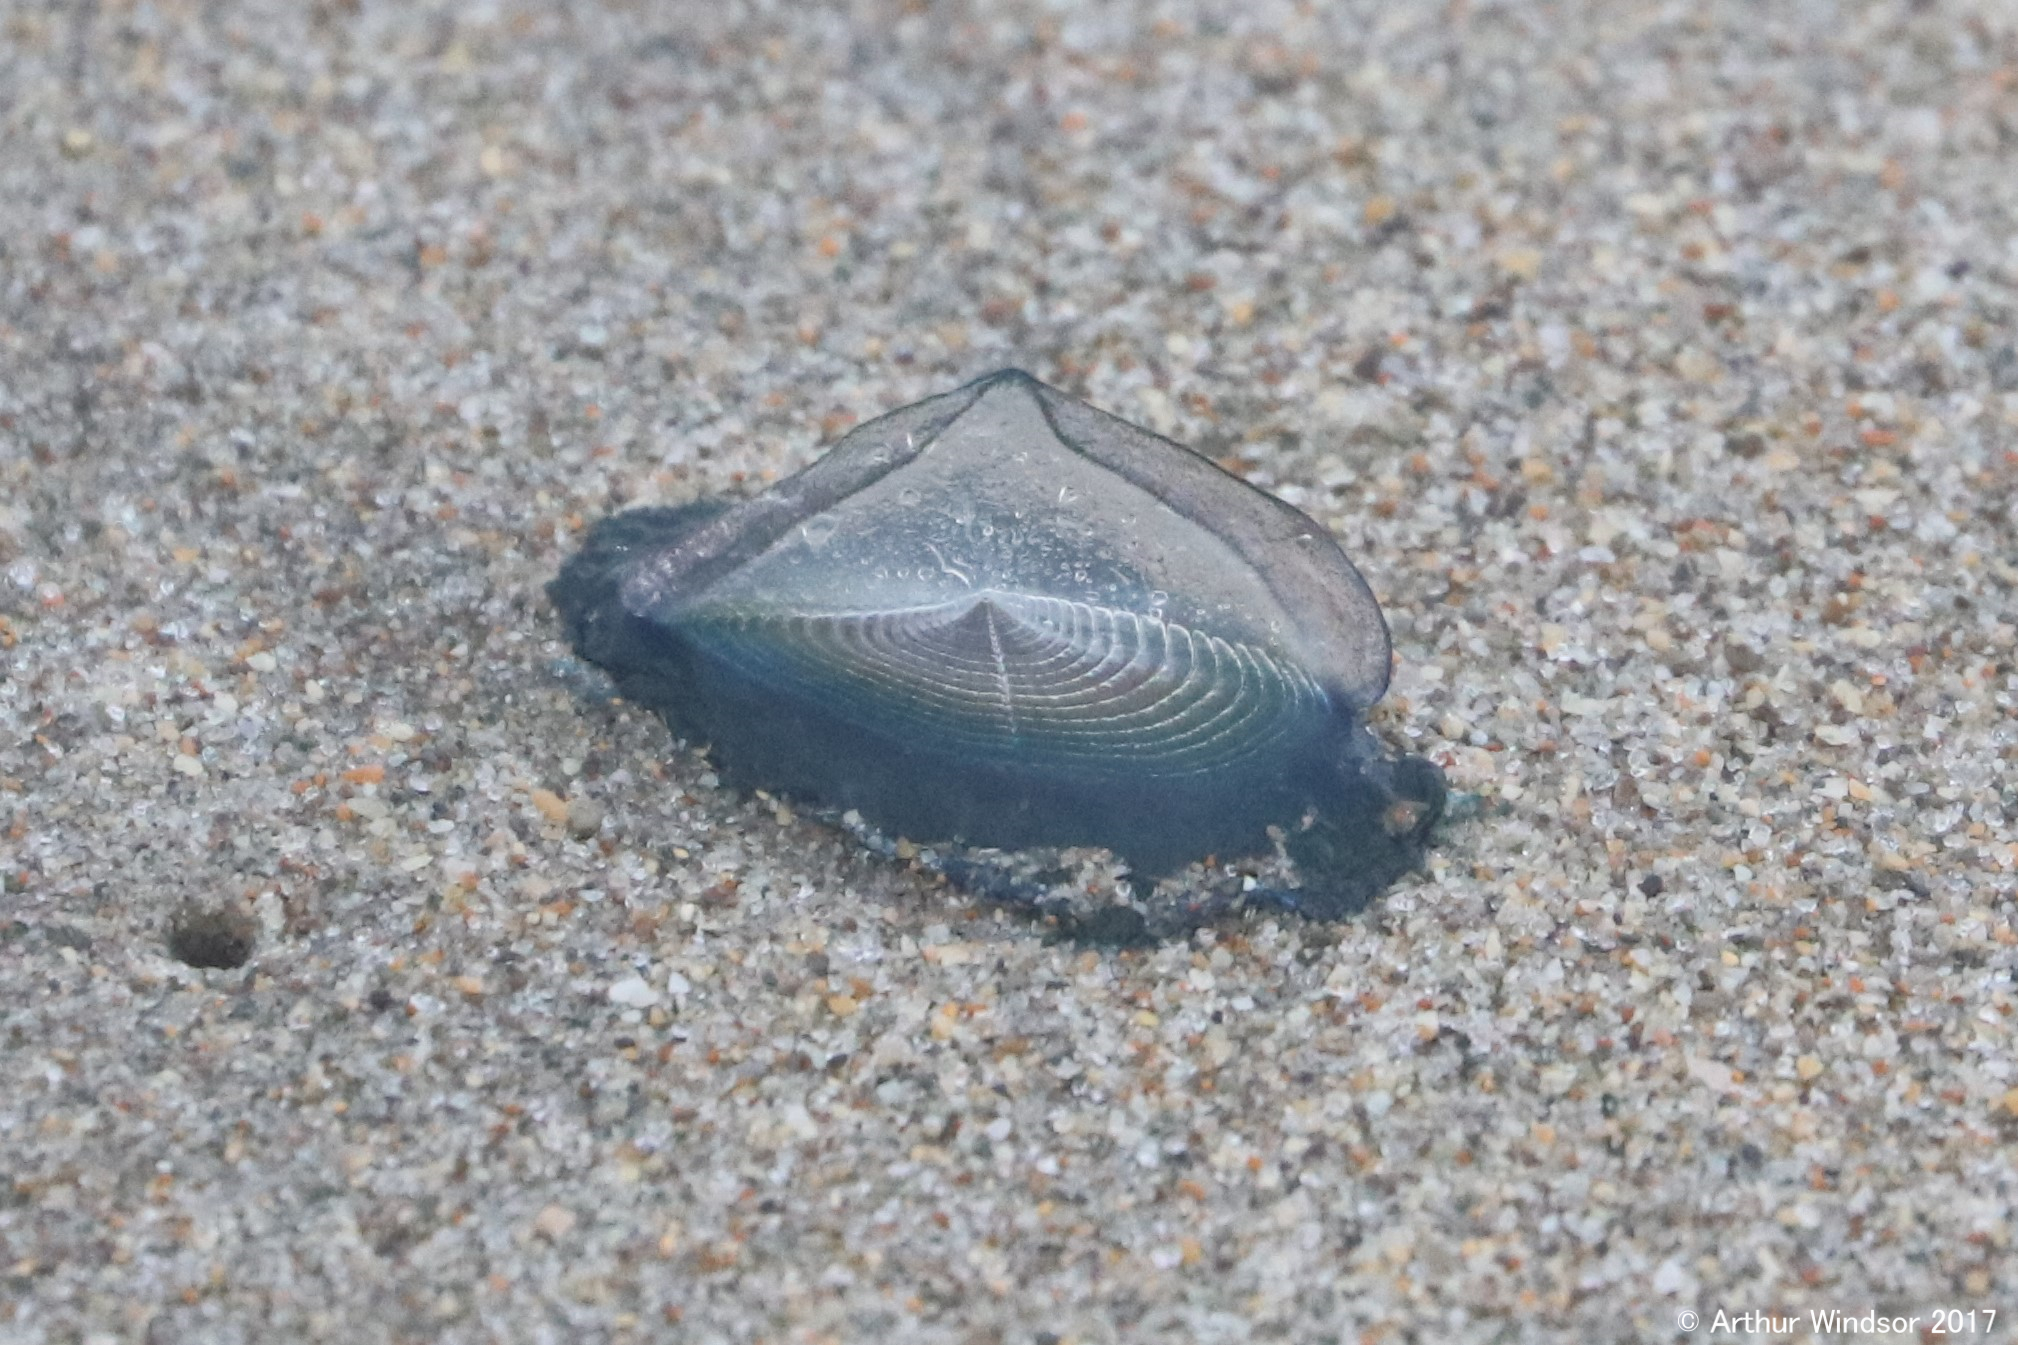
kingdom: Animalia
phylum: Cnidaria
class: Hydrozoa
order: Anthoathecata
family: Porpitidae
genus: Velella
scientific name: Velella velella
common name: By-the-wind-sailor
